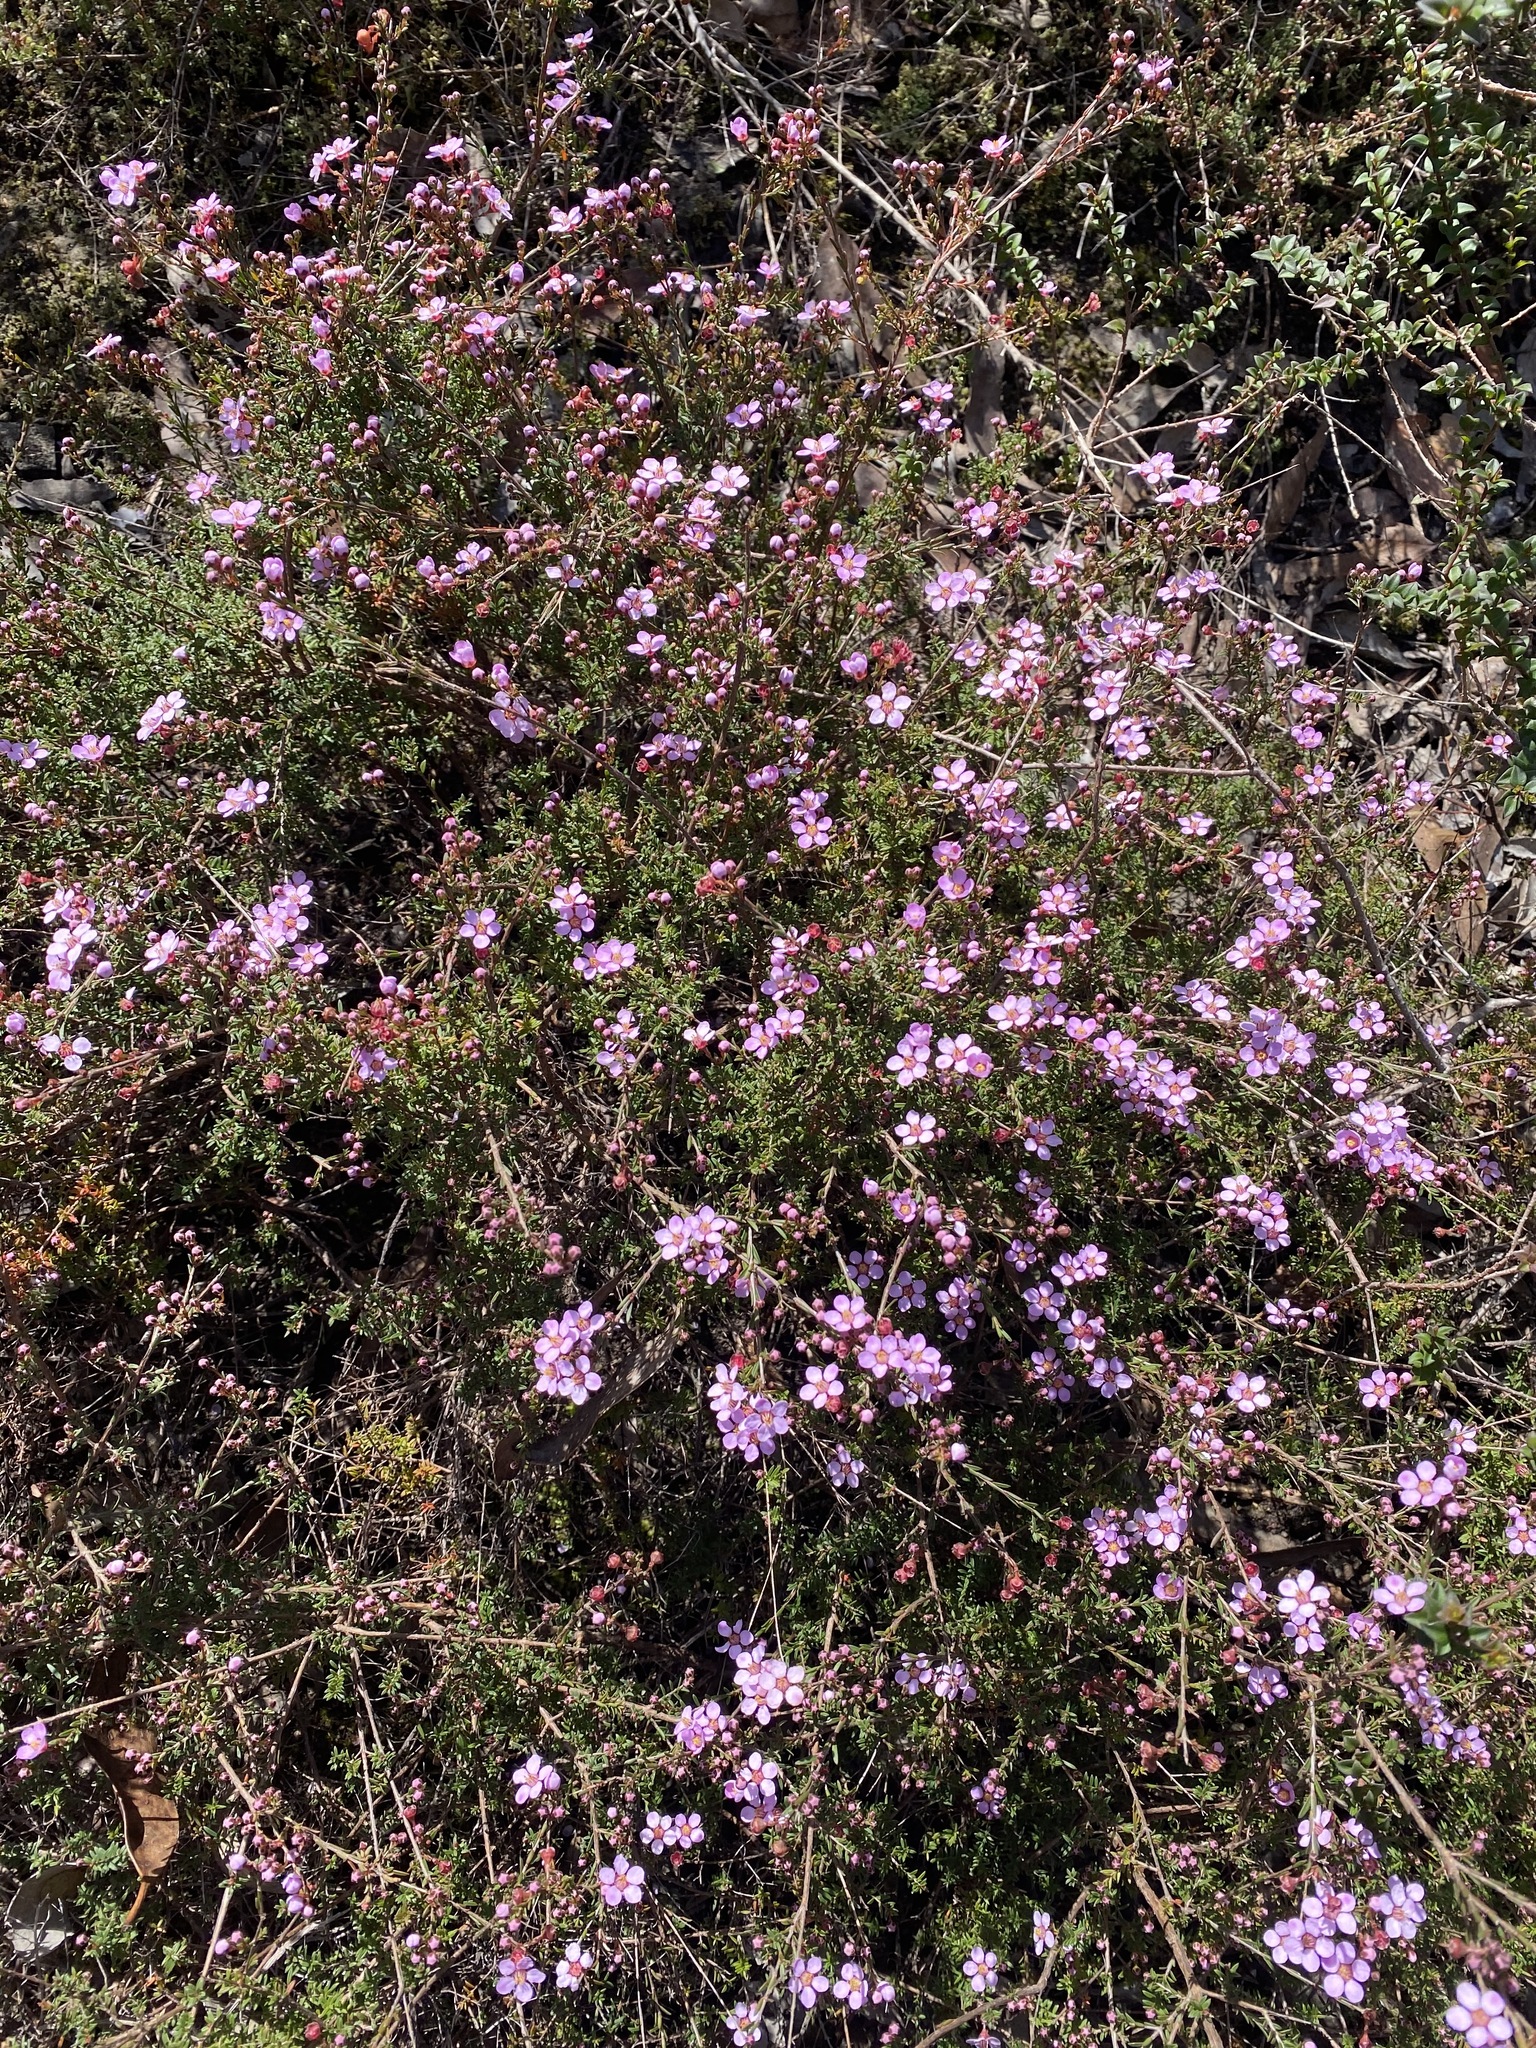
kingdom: Plantae
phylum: Tracheophyta
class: Magnoliopsida
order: Myrtales
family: Myrtaceae
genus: Euryomyrtus
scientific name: Euryomyrtus ramosissima
